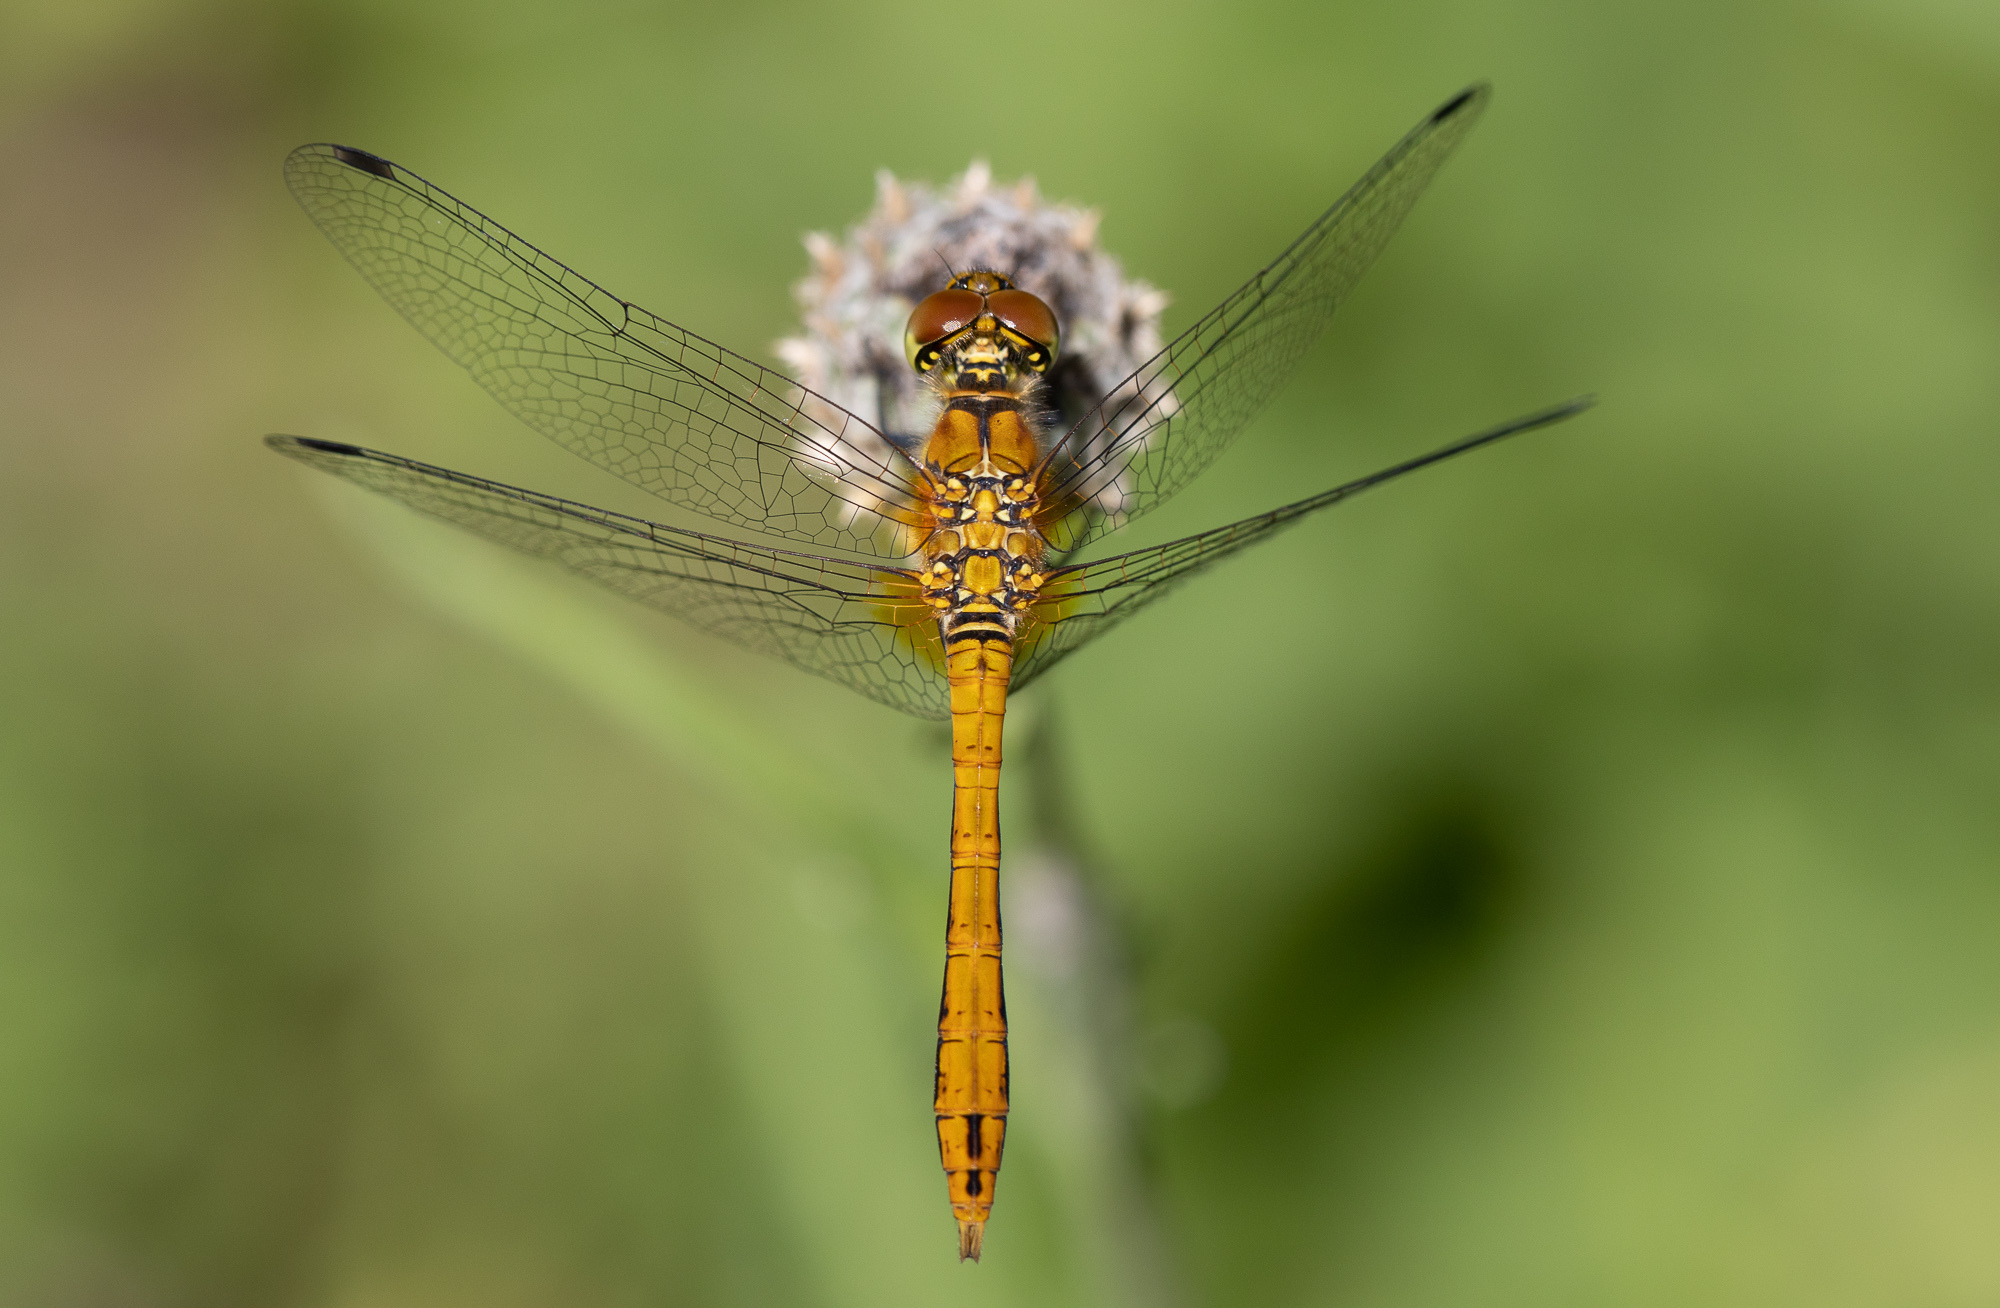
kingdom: Animalia
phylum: Arthropoda
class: Insecta
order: Odonata
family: Libellulidae
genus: Sympetrum
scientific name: Sympetrum sanguineum
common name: Ruddy darter
